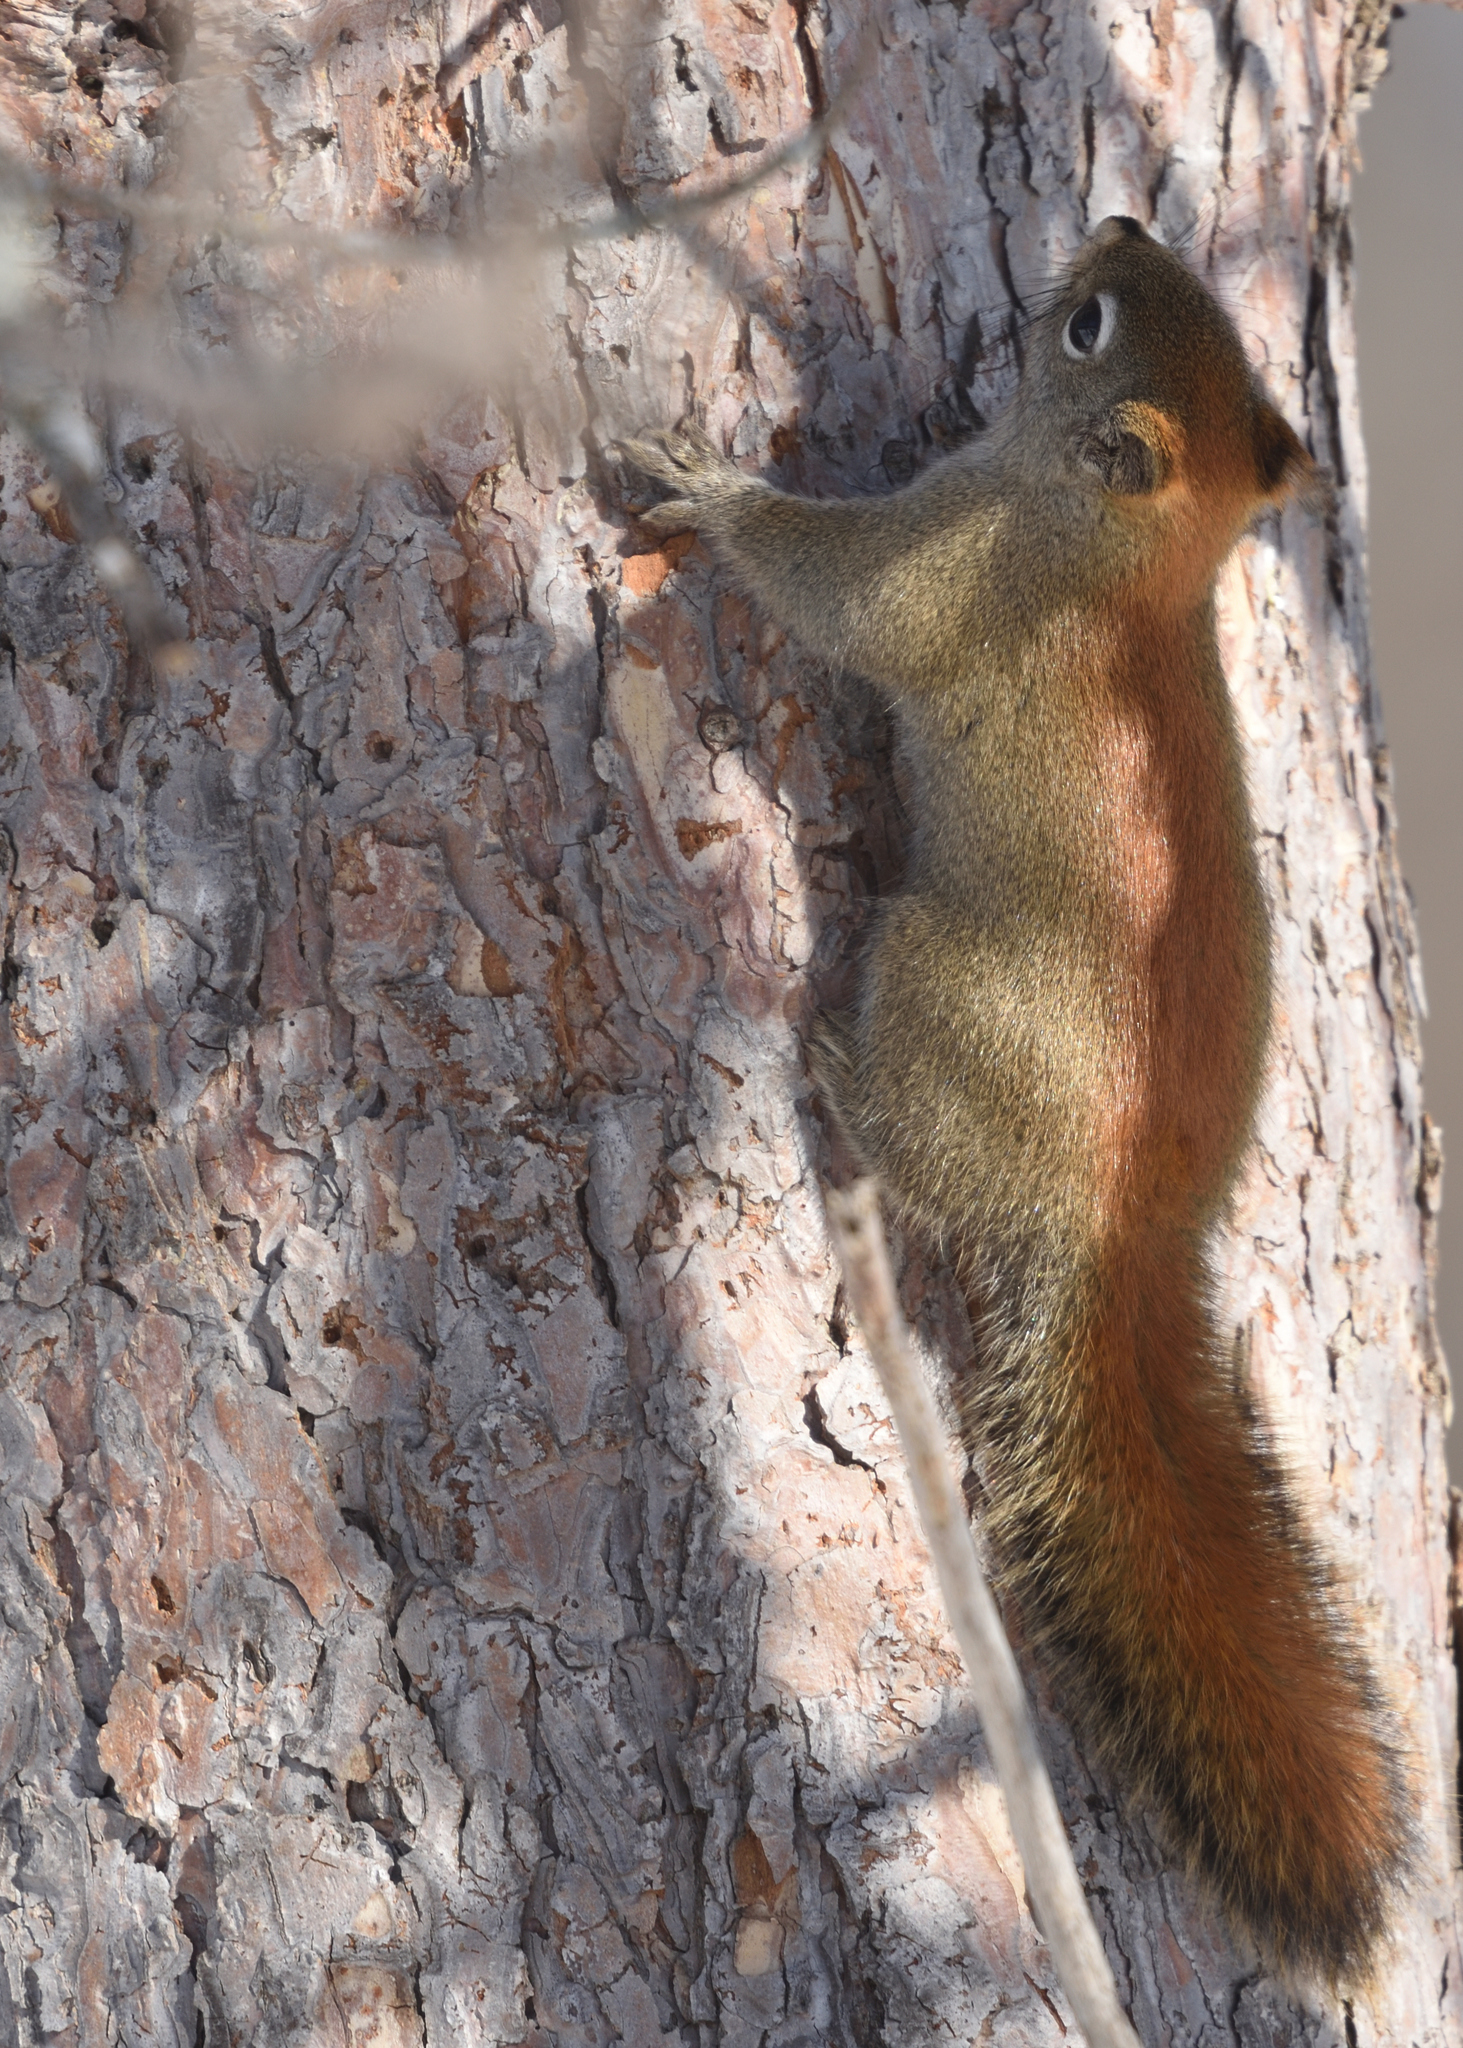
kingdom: Animalia
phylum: Chordata
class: Mammalia
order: Rodentia
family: Sciuridae
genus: Tamiasciurus
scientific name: Tamiasciurus hudsonicus
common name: Red squirrel
